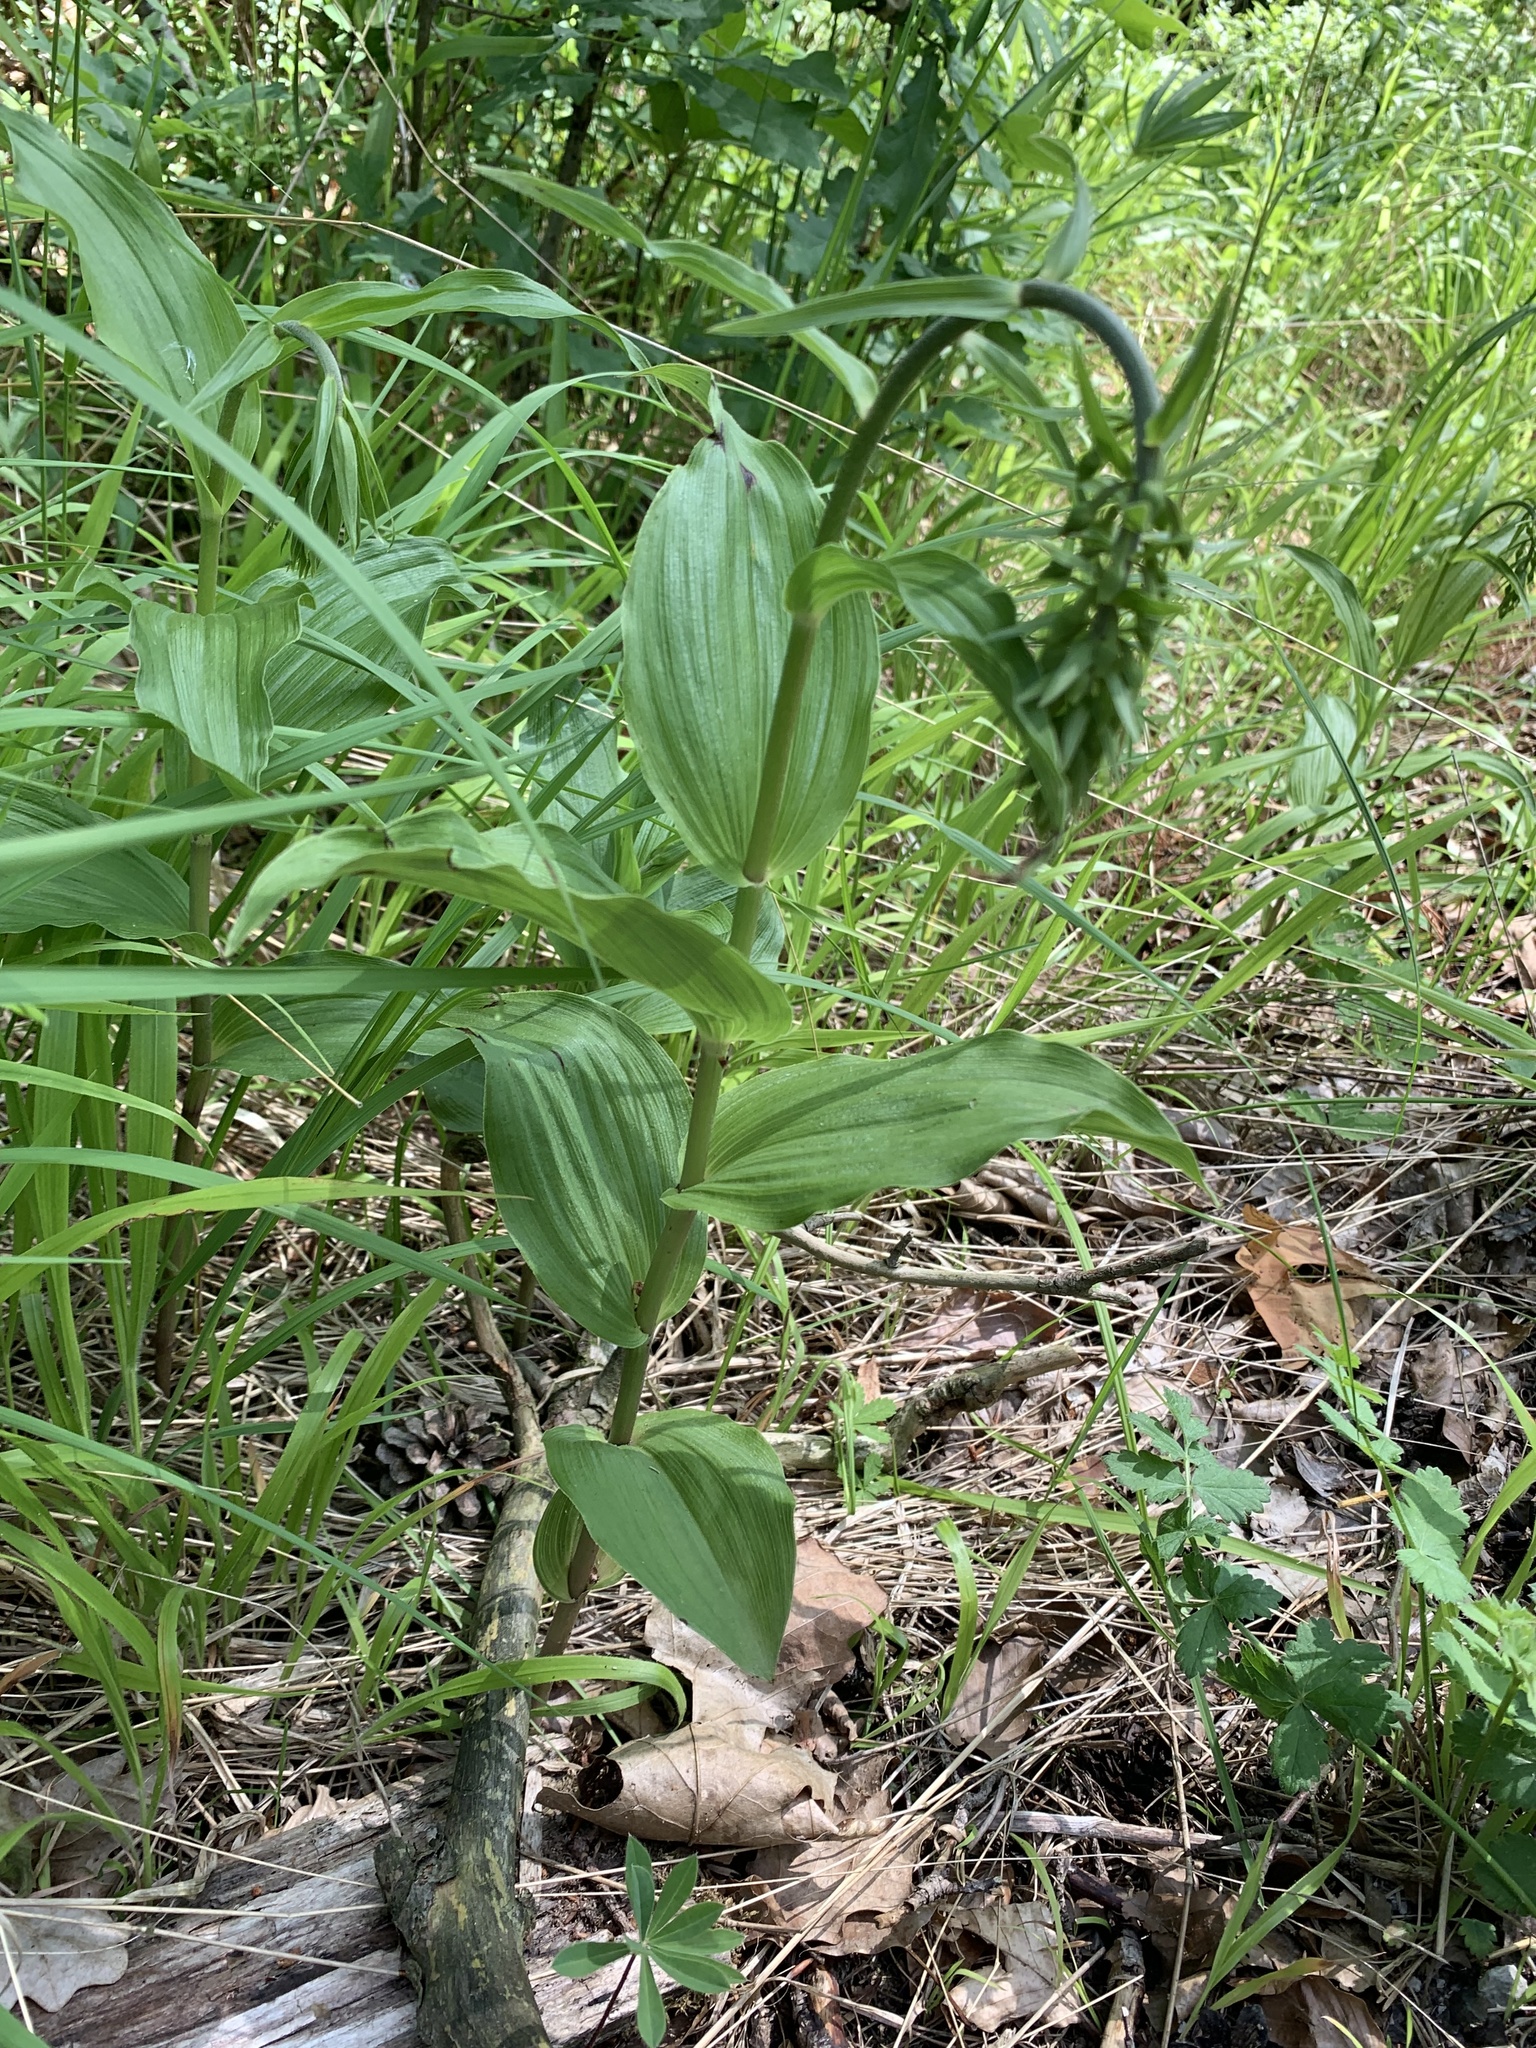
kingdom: Plantae
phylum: Tracheophyta
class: Liliopsida
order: Asparagales
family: Orchidaceae
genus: Epipactis
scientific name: Epipactis helleborine
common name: Broad-leaved helleborine
